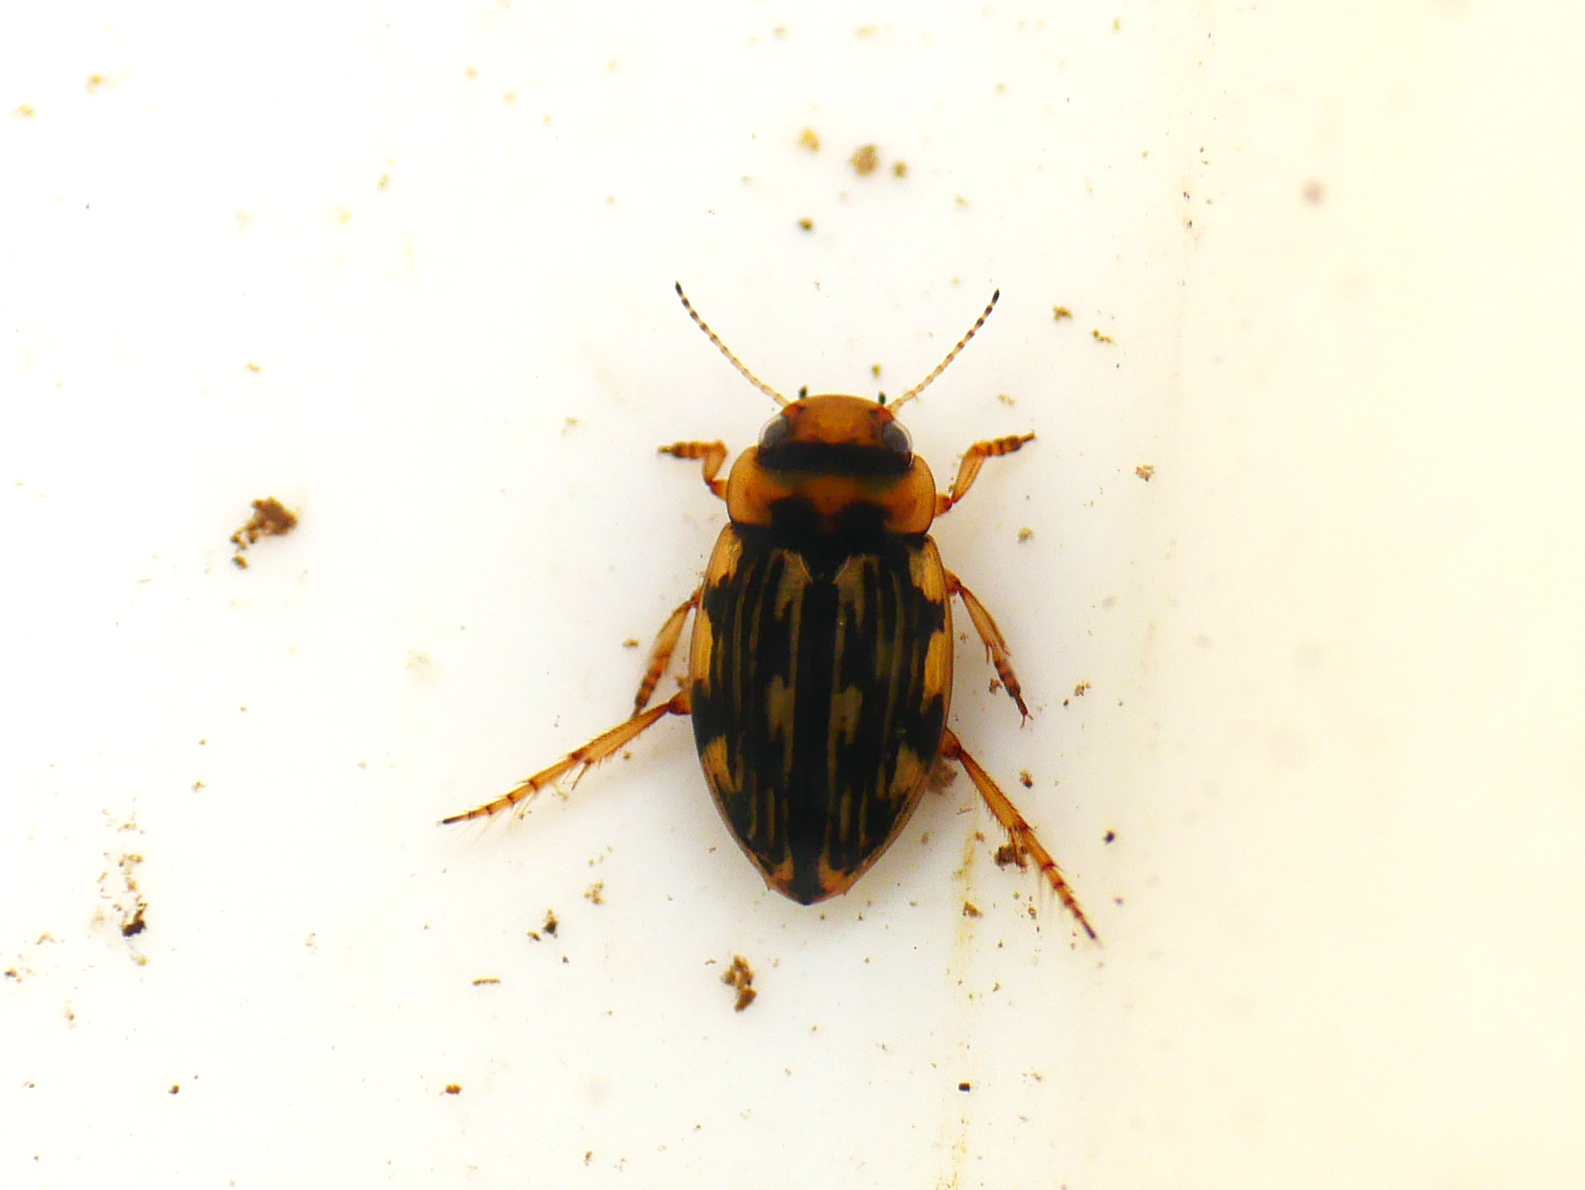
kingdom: Animalia
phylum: Arthropoda
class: Insecta
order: Coleoptera
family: Dytiscidae
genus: Nebrioporus
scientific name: Nebrioporus depressus
